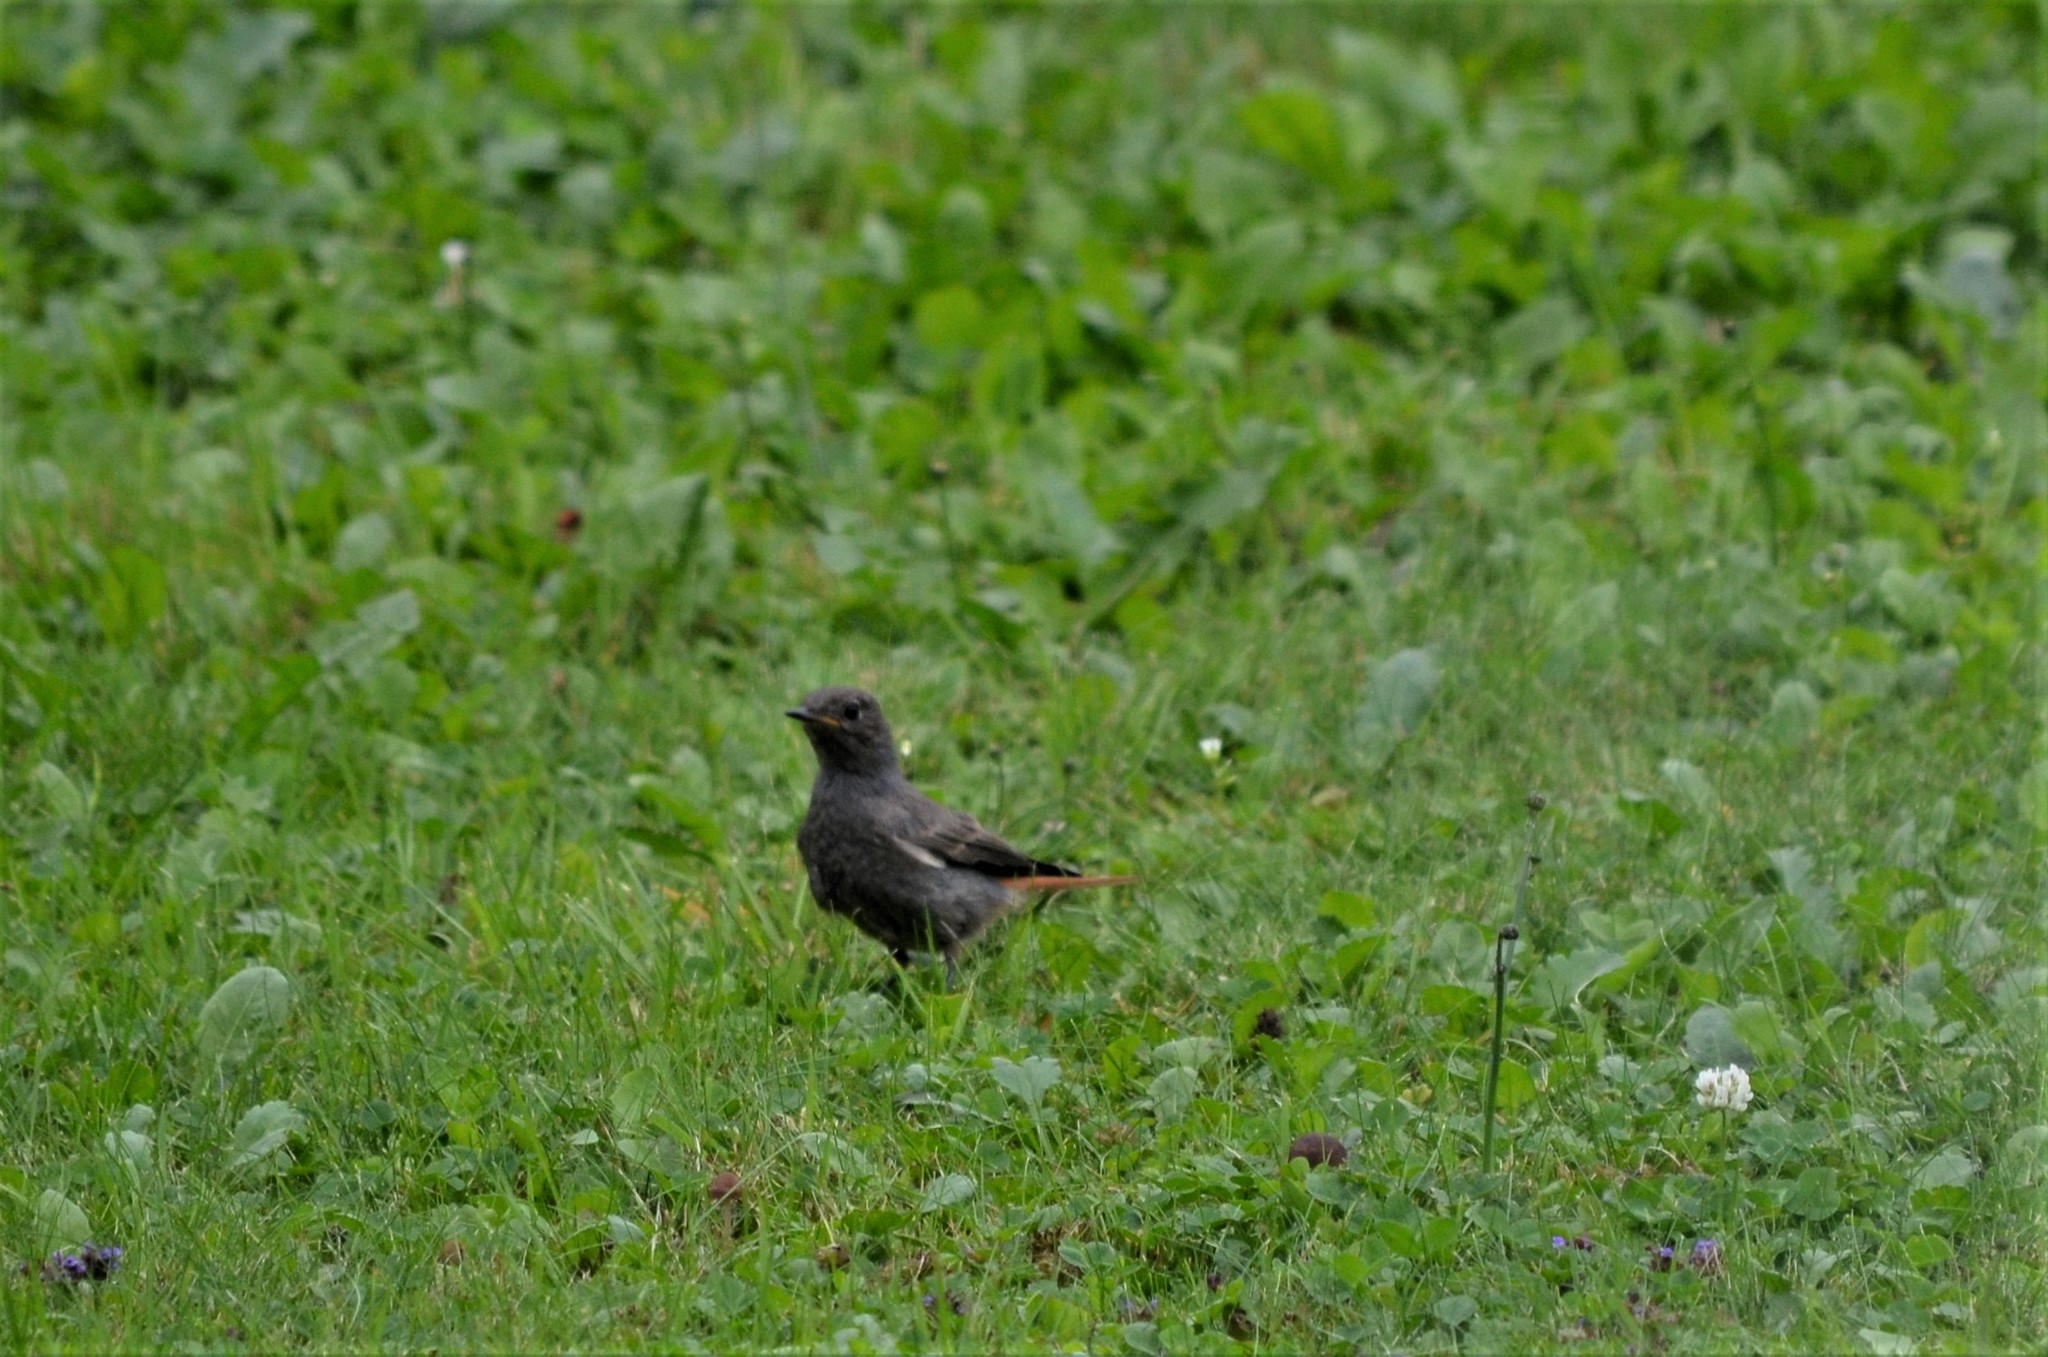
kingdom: Animalia
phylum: Chordata
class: Aves
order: Passeriformes
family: Muscicapidae
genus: Phoenicurus
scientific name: Phoenicurus ochruros
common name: Black redstart
